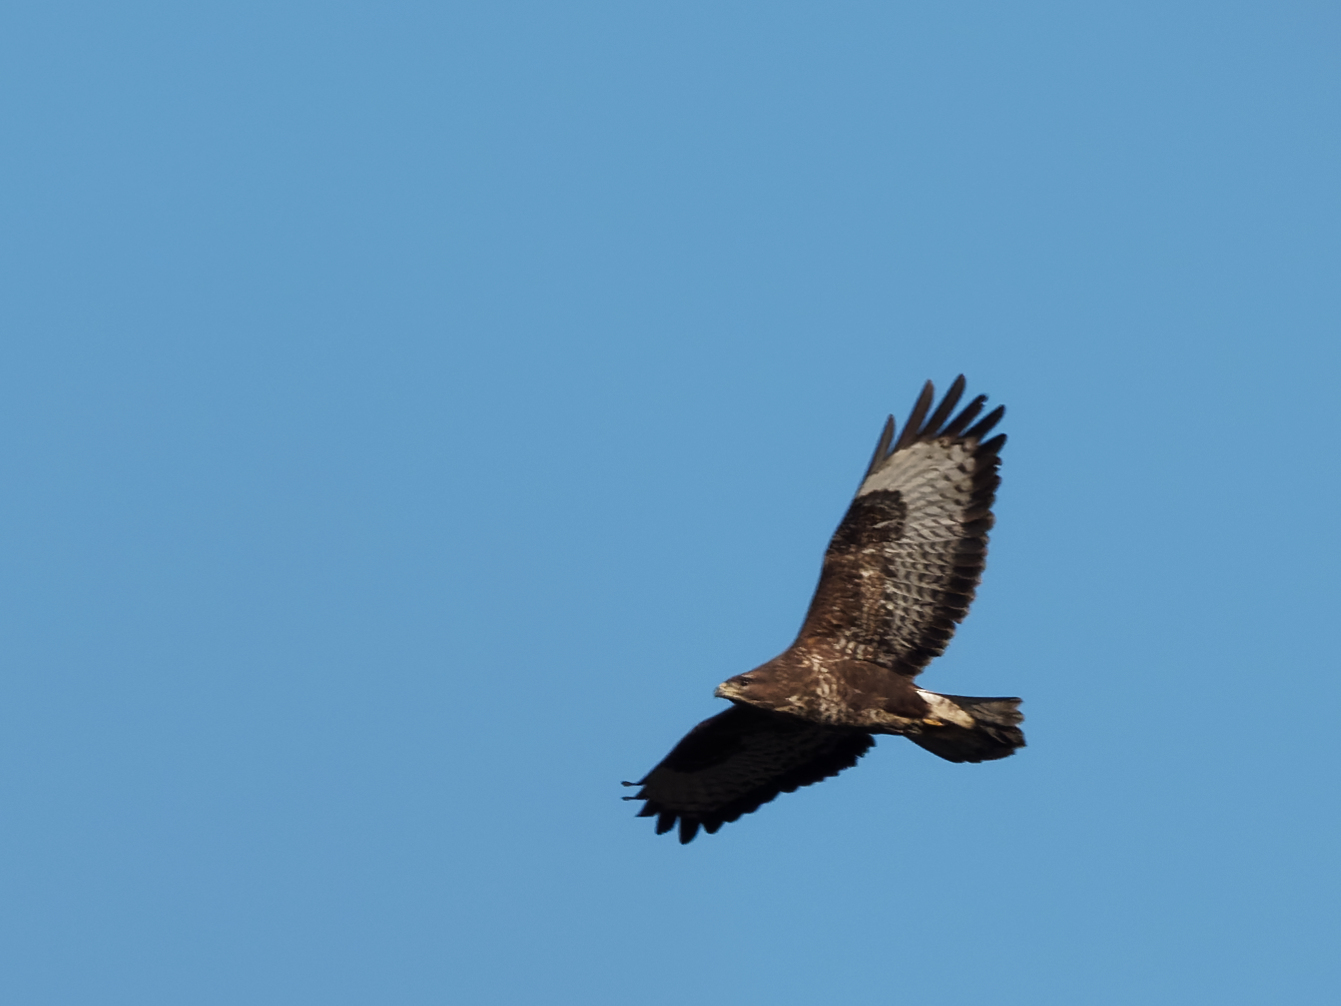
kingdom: Animalia
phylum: Chordata
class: Aves
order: Accipitriformes
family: Accipitridae
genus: Buteo
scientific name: Buteo buteo
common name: Common buzzard
